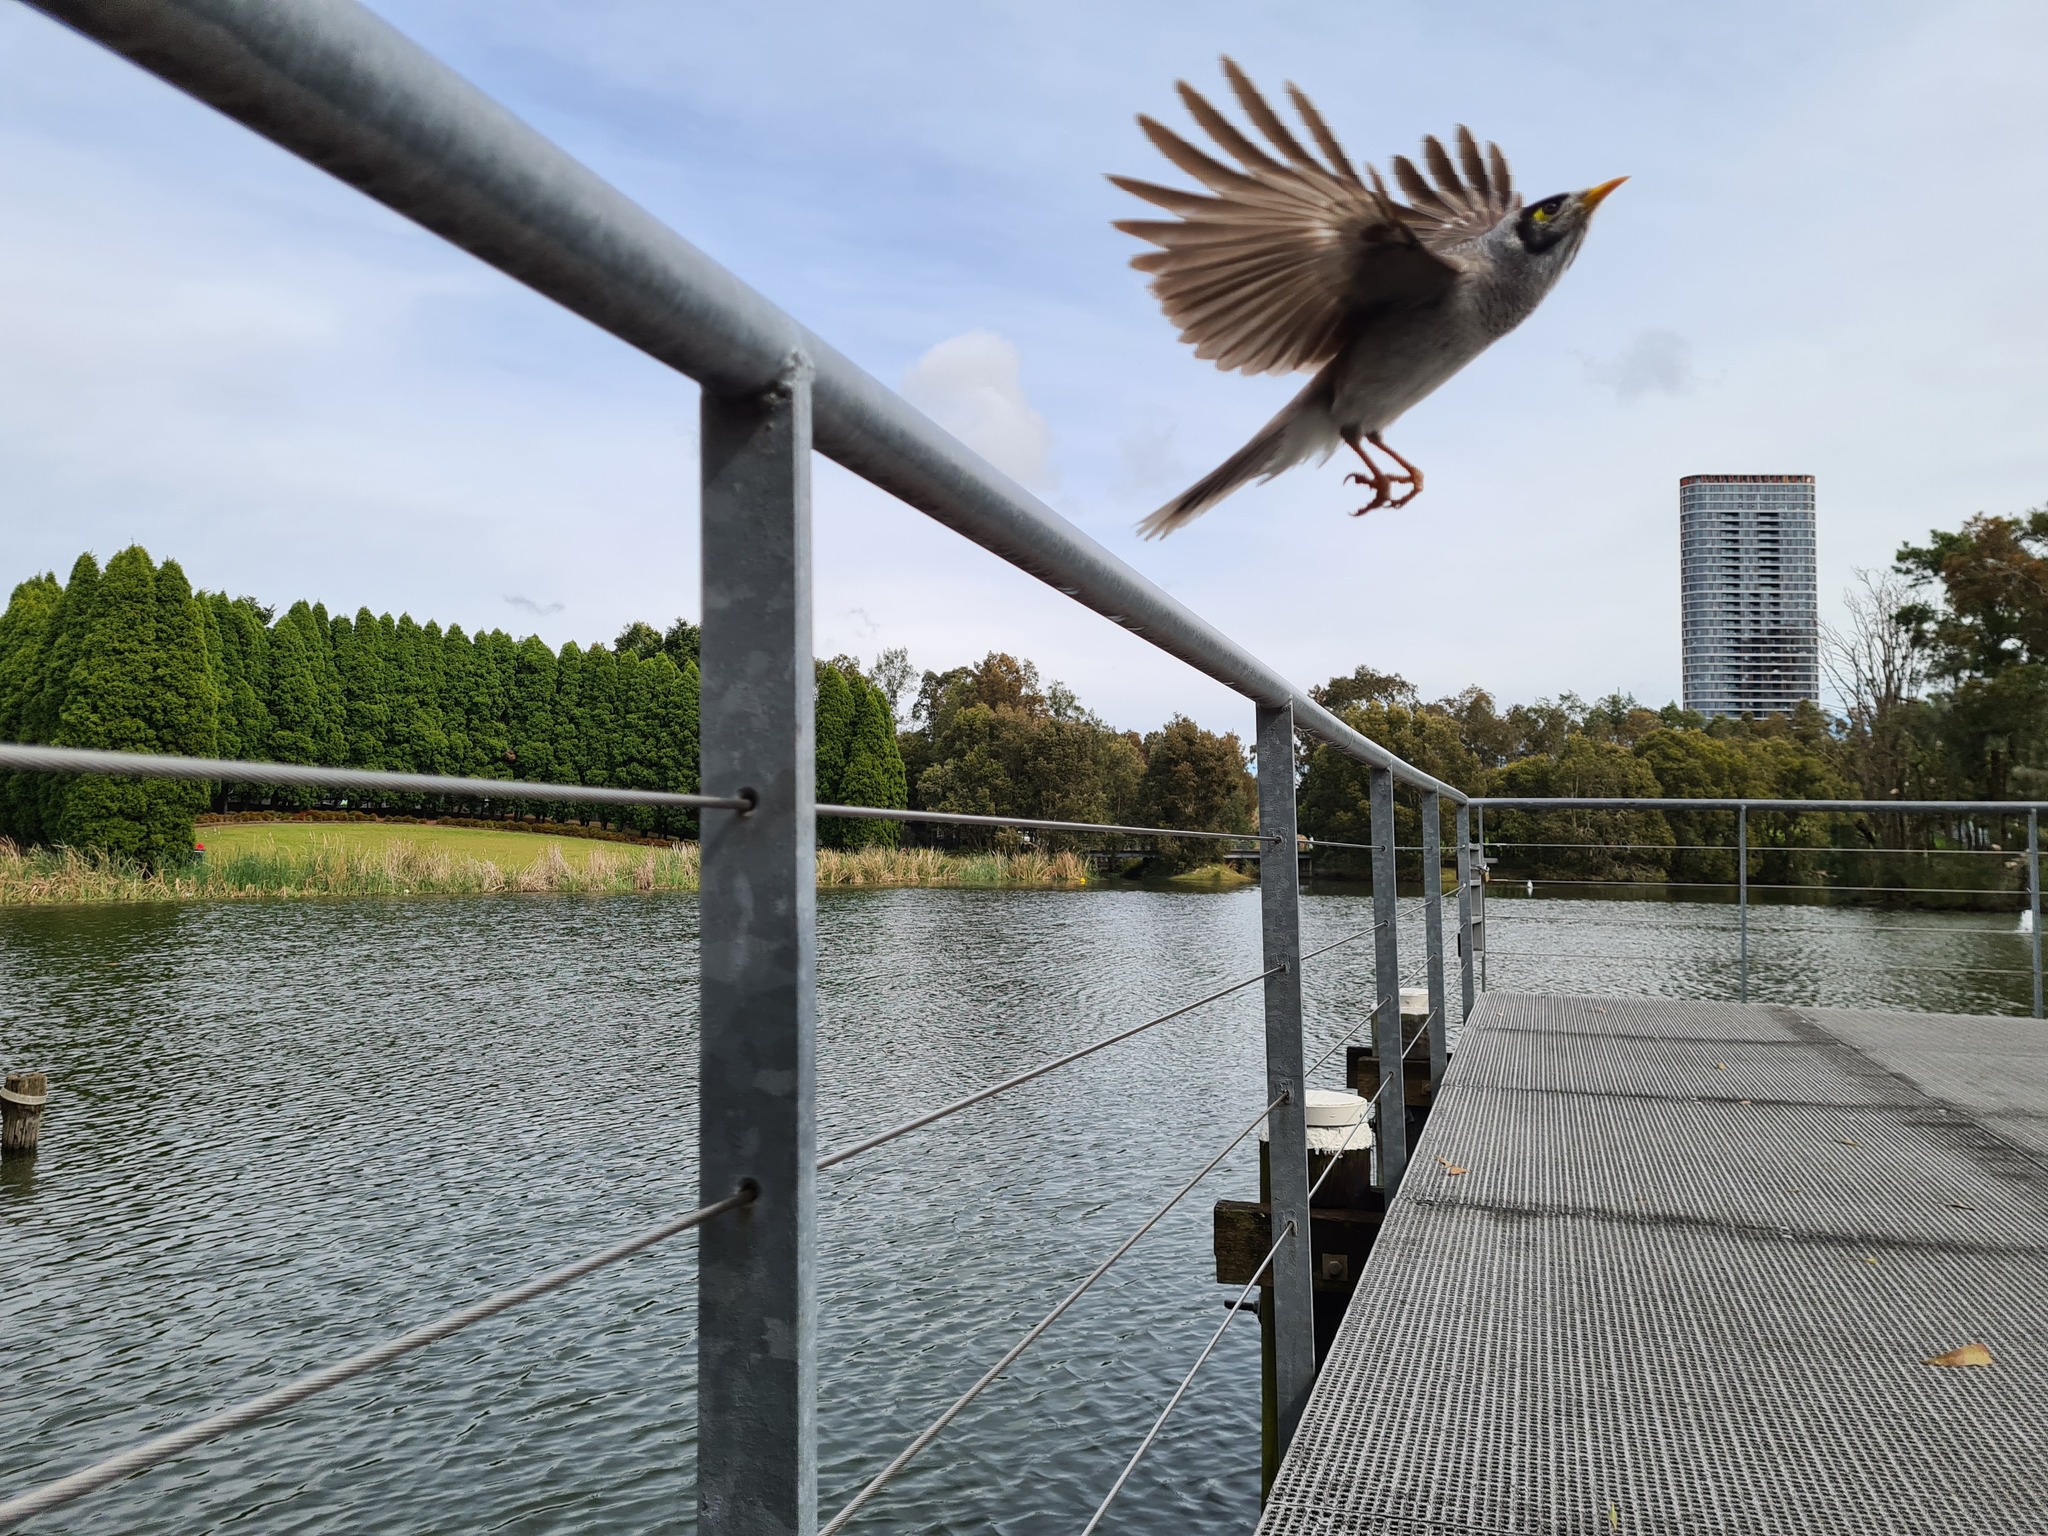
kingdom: Animalia
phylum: Chordata
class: Aves
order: Passeriformes
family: Meliphagidae
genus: Manorina
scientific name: Manorina melanocephala
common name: Noisy miner
